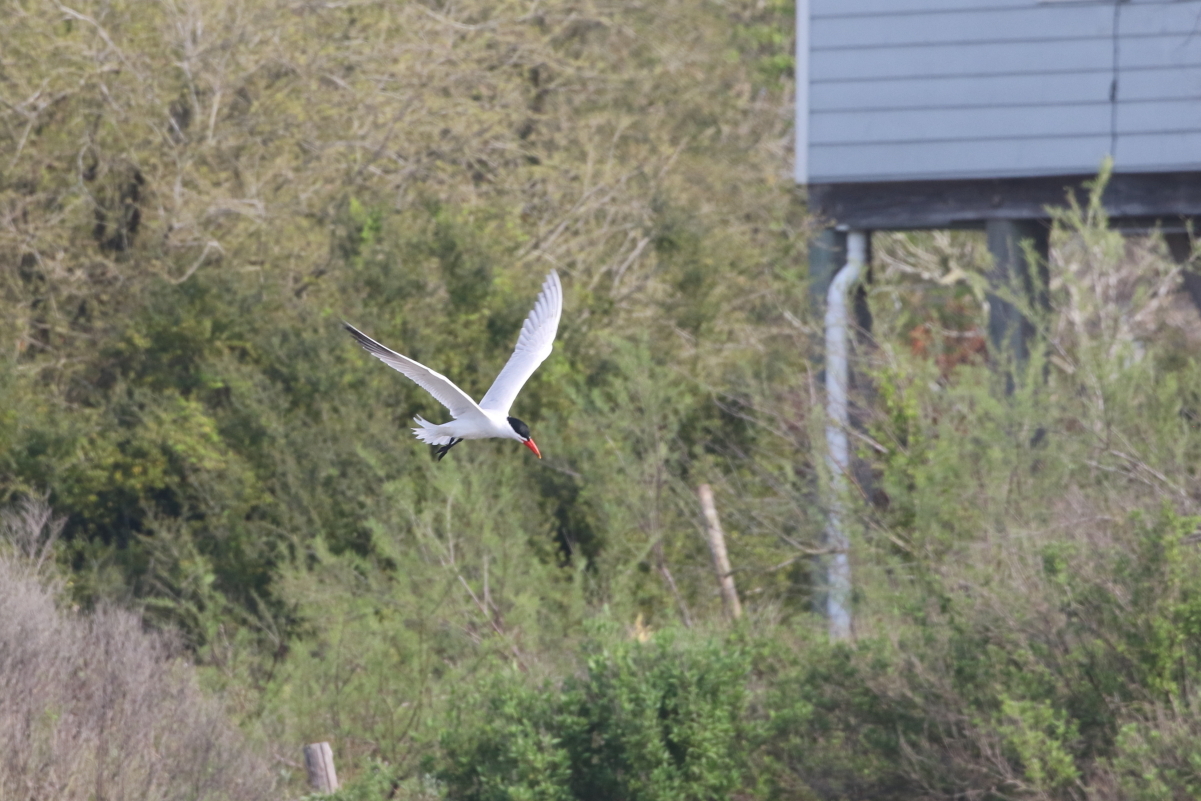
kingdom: Animalia
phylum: Chordata
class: Aves
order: Charadriiformes
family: Laridae
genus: Hydroprogne
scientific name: Hydroprogne caspia
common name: Caspian tern
